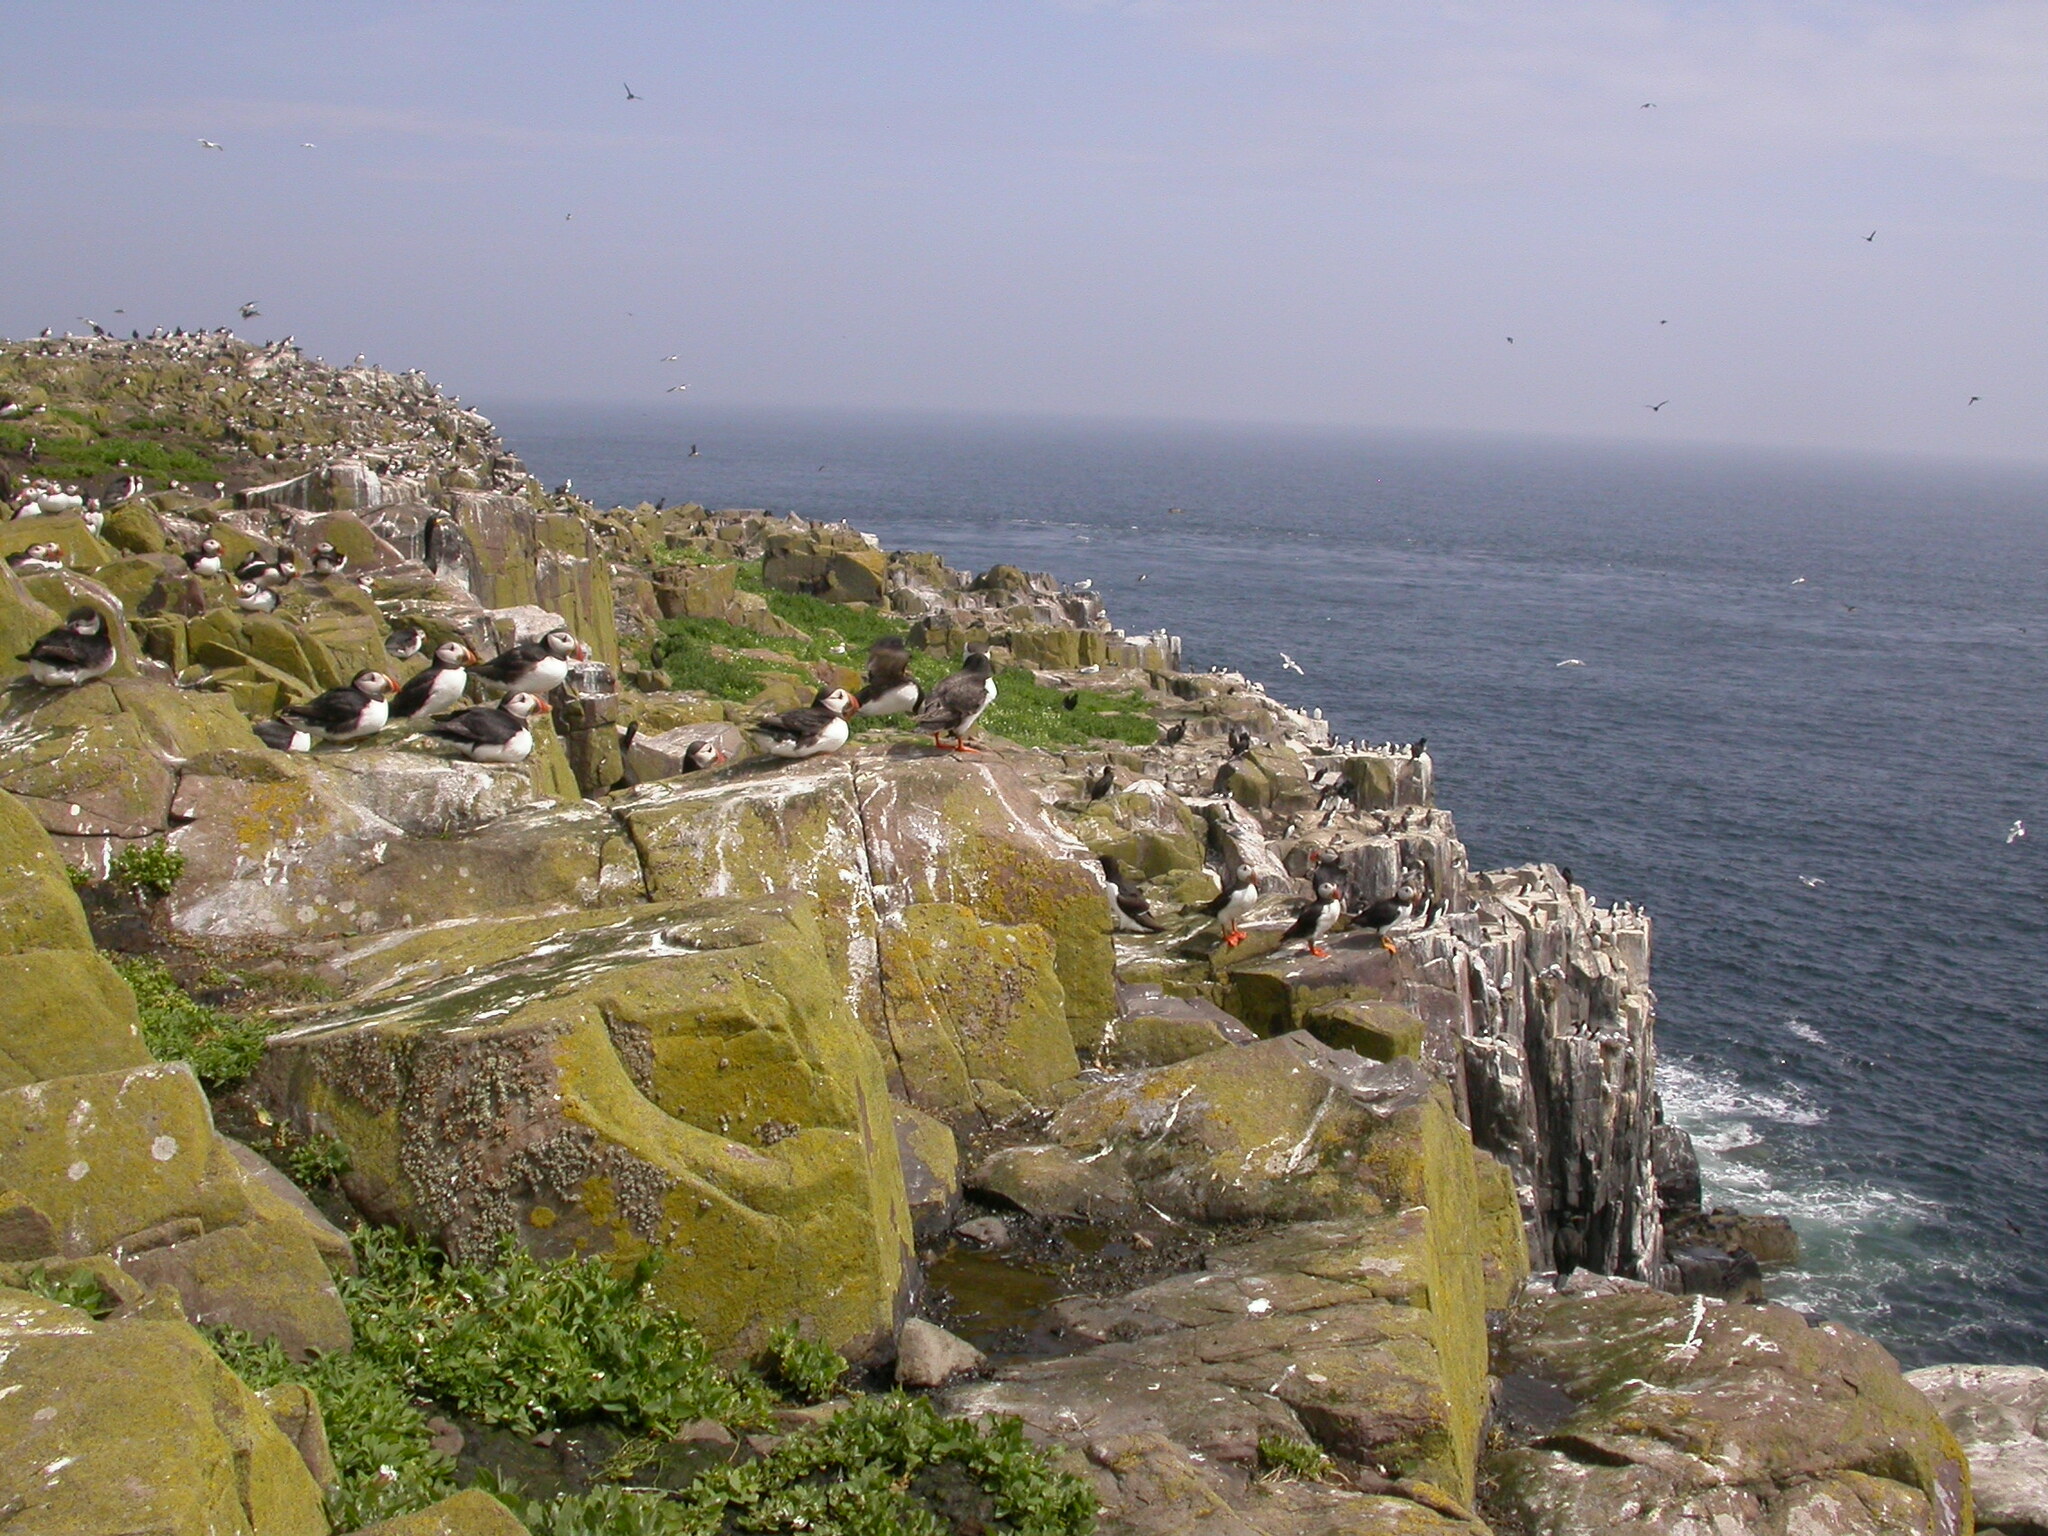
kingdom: Animalia
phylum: Chordata
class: Aves
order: Charadriiformes
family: Alcidae
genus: Fratercula
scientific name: Fratercula arctica
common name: Atlantic puffin
